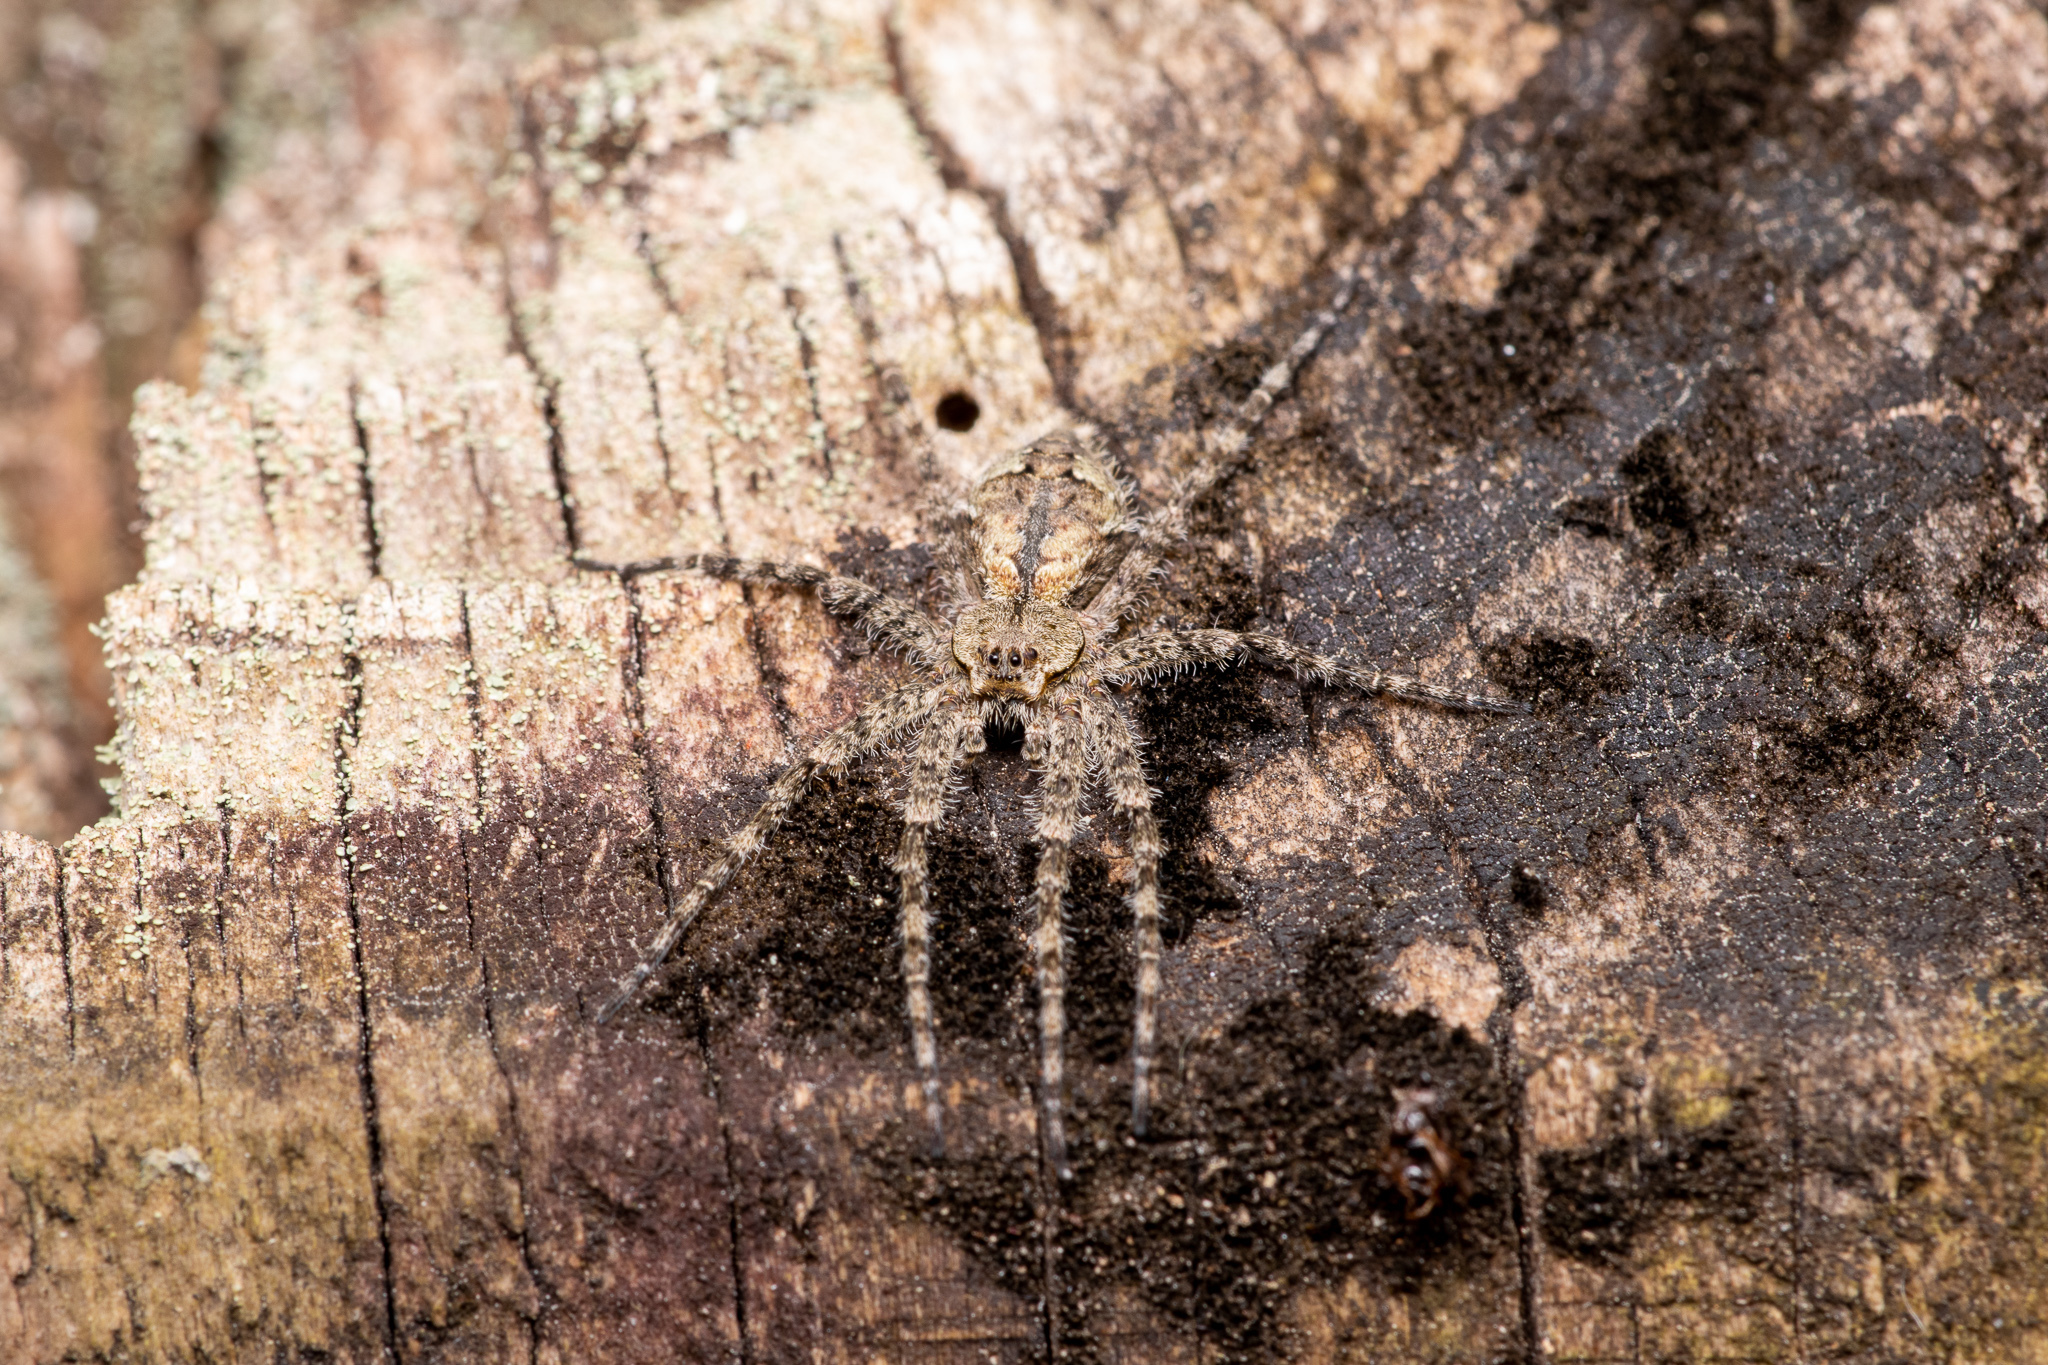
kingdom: Animalia
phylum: Arthropoda
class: Arachnida
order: Araneae
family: Pisauridae
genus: Dolomedes
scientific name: Dolomedes albineus
